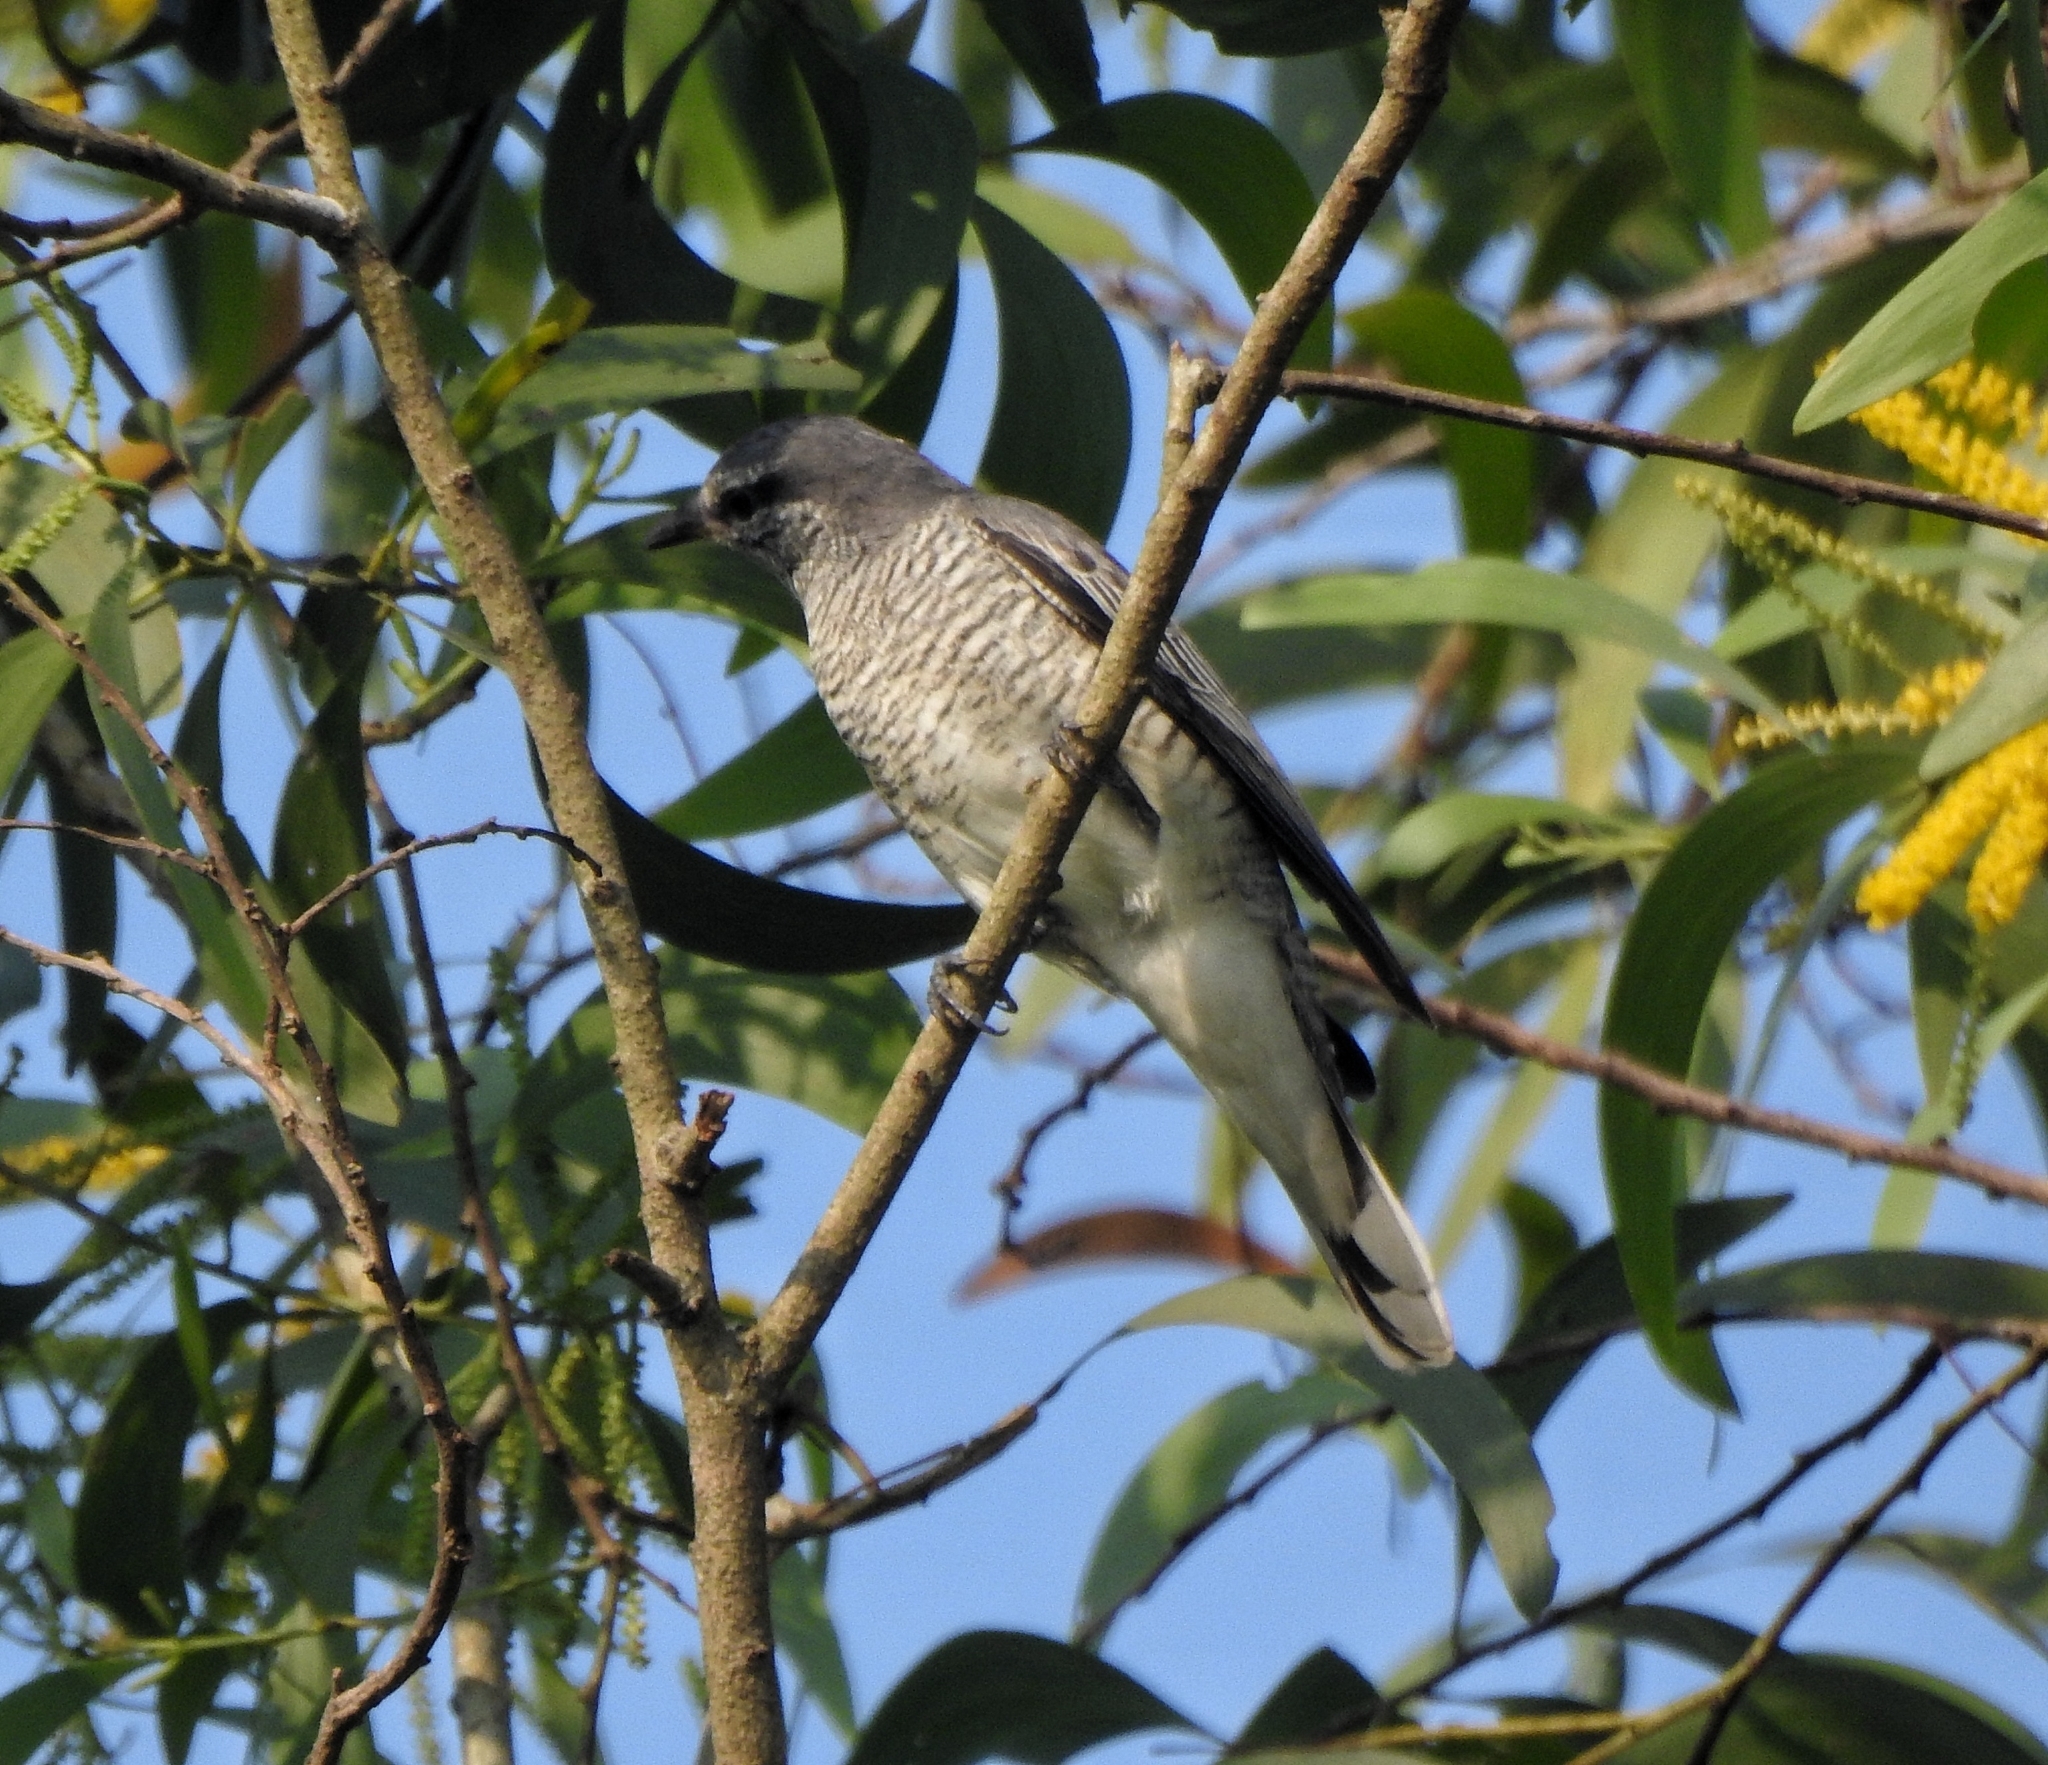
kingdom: Animalia
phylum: Chordata
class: Aves
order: Passeriformes
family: Campephagidae
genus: Coracina
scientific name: Coracina melanoptera
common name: Black-headed cuckooshrike
